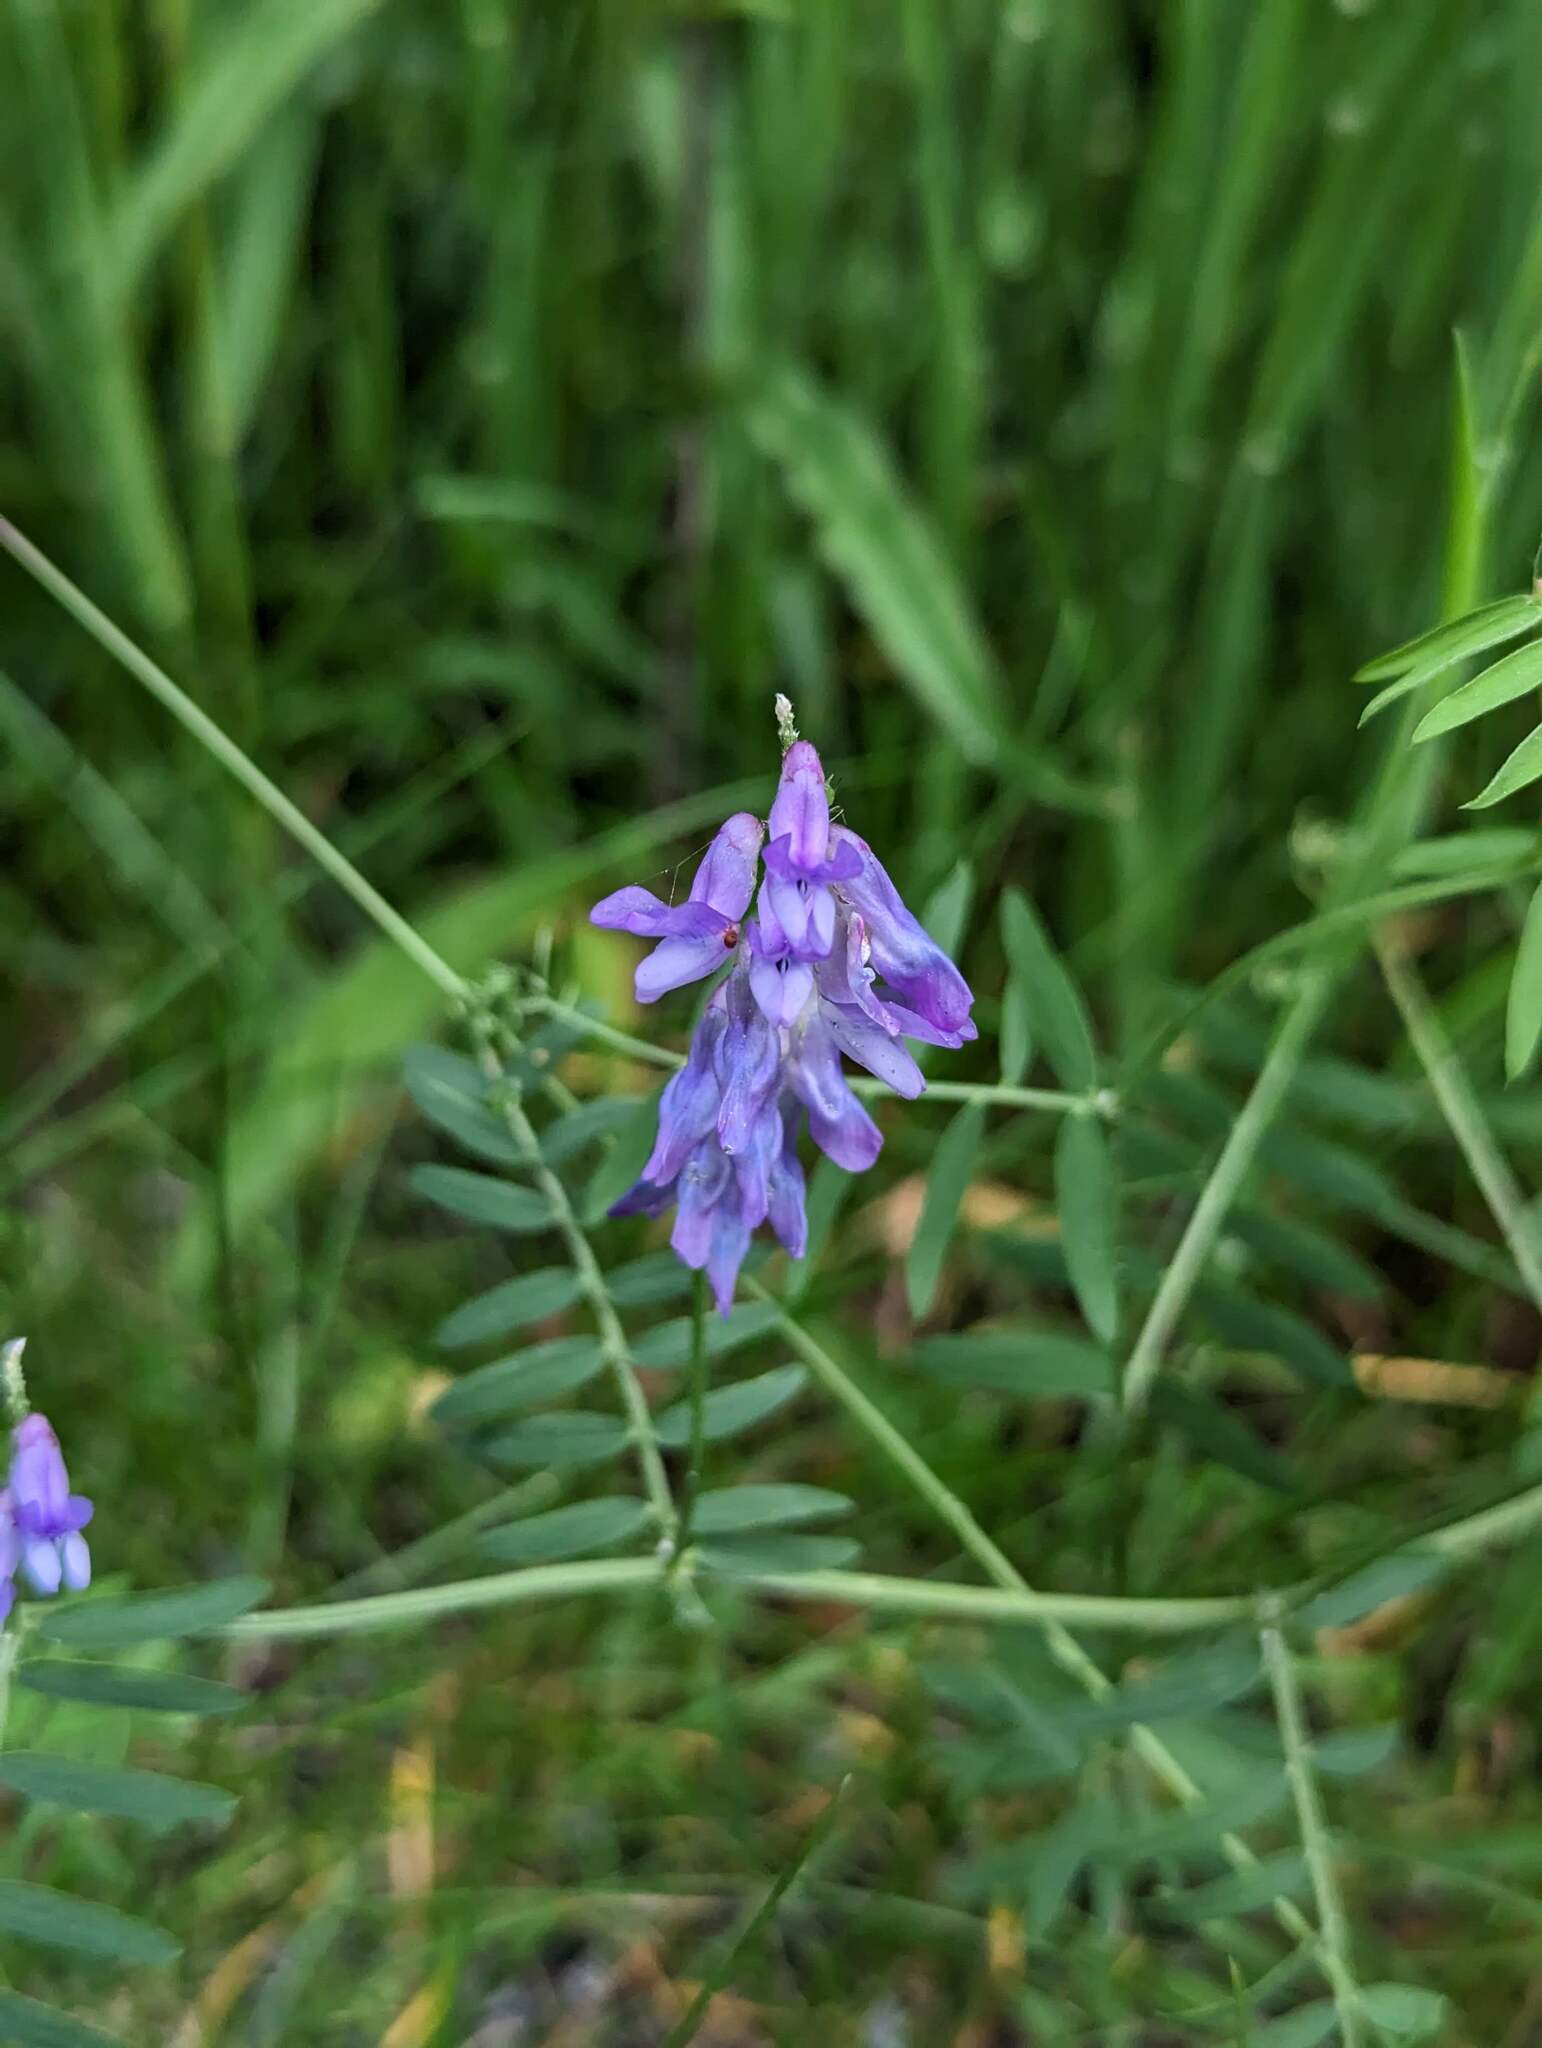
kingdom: Plantae
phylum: Tracheophyta
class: Magnoliopsida
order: Fabales
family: Fabaceae
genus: Vicia
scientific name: Vicia cracca
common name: Bird vetch
